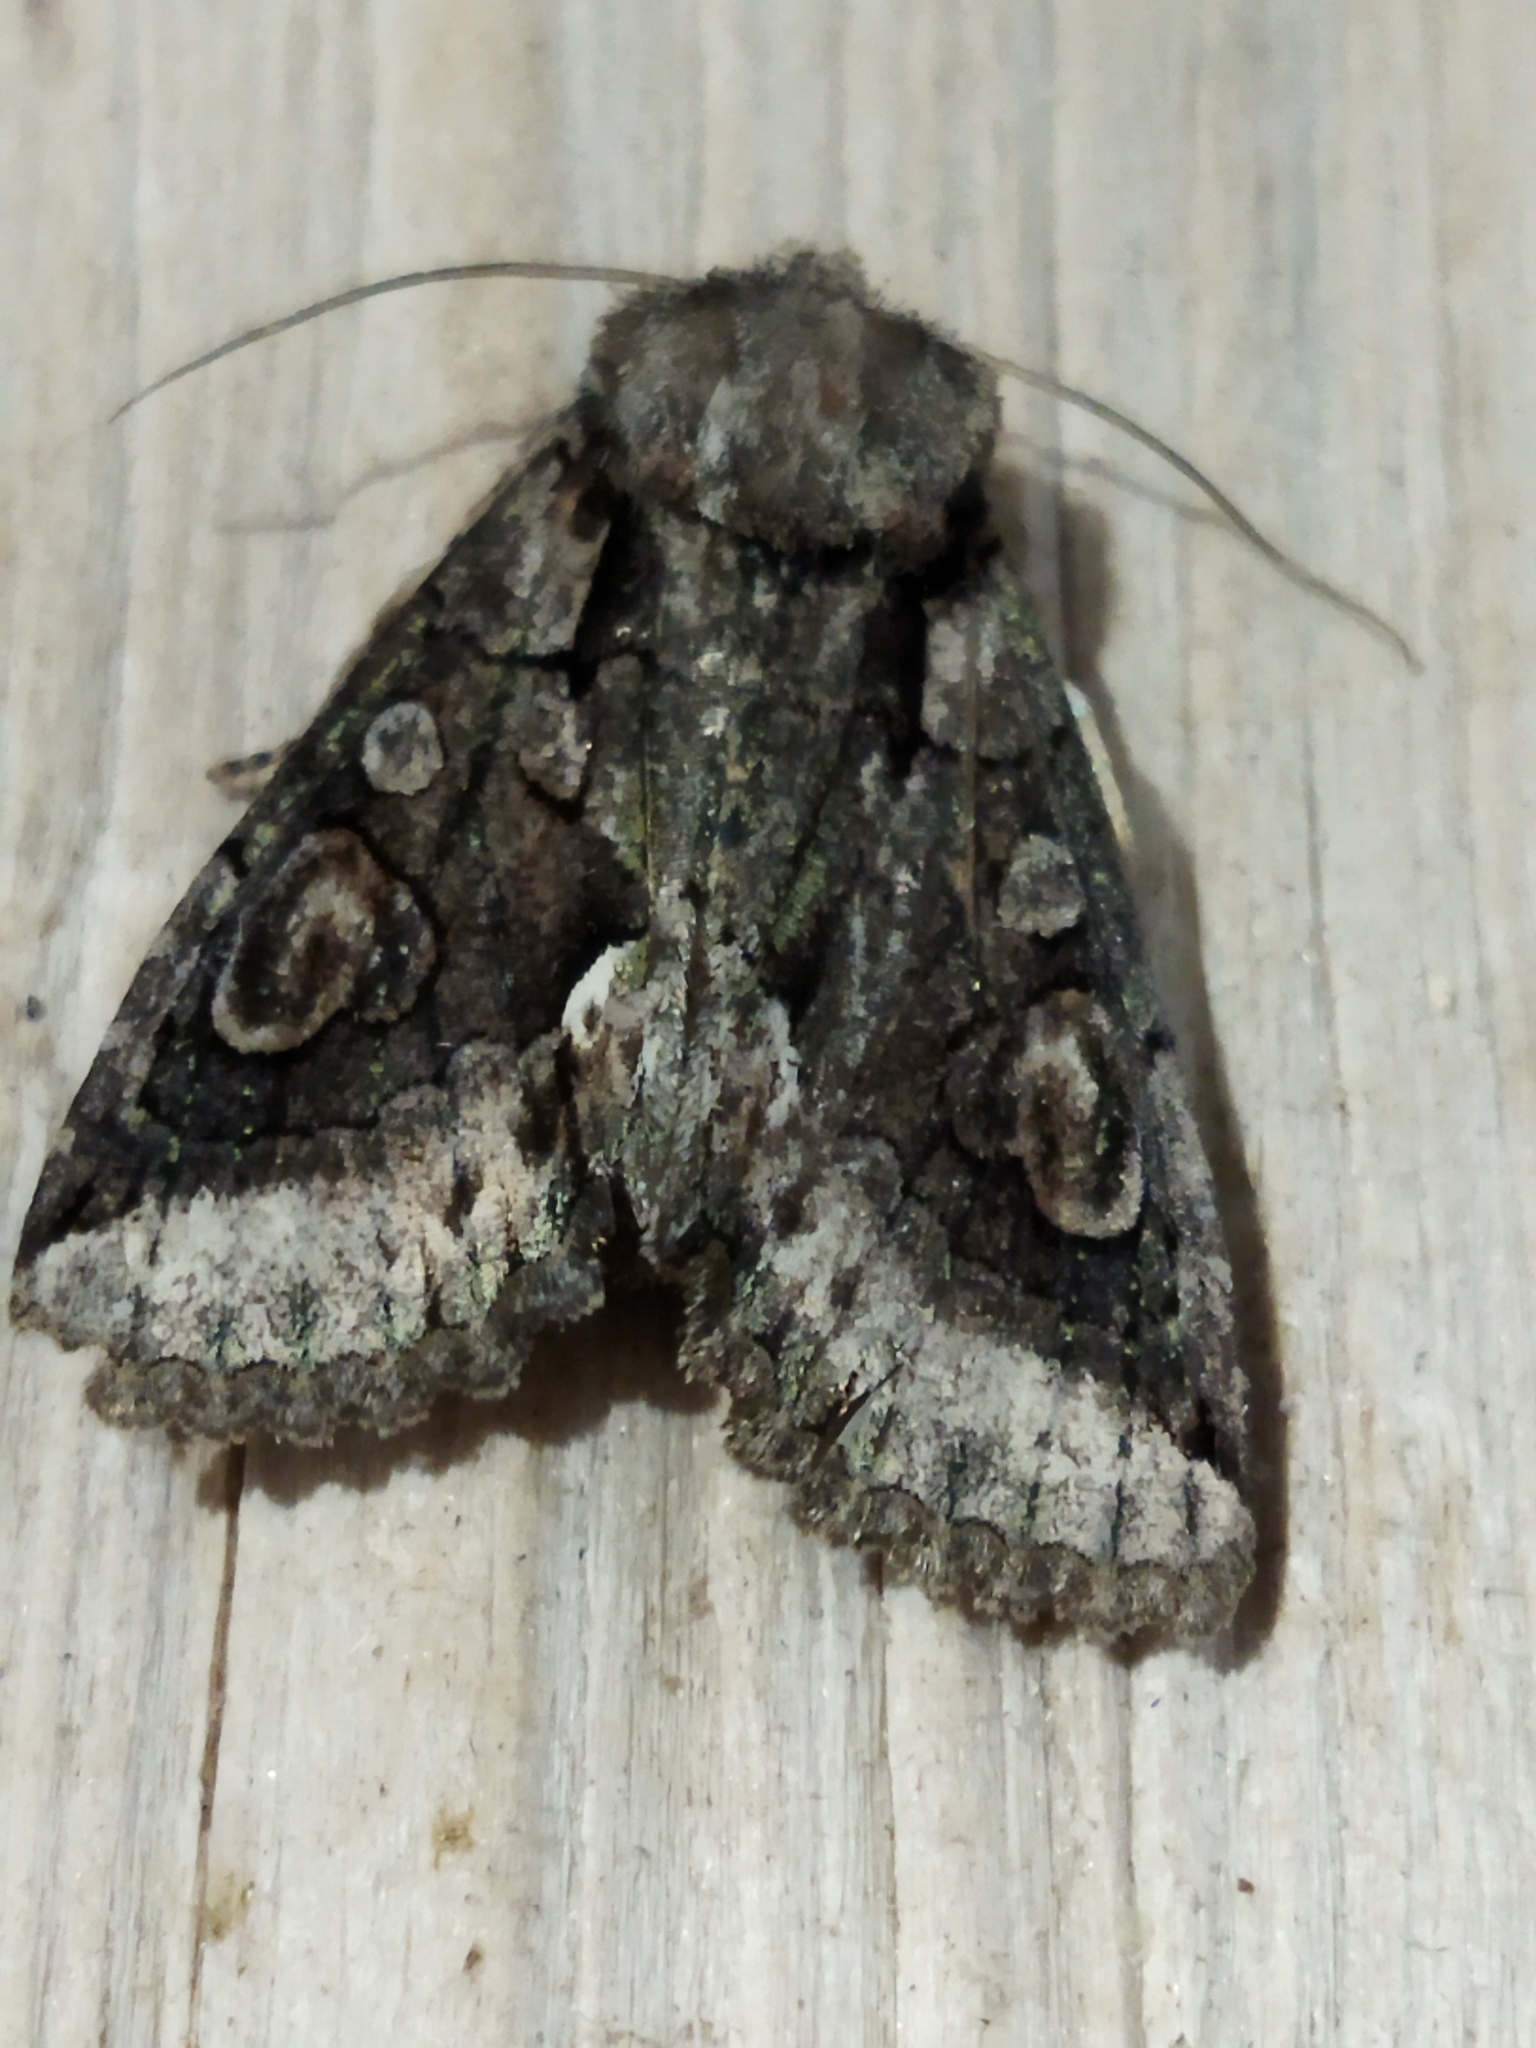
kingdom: Animalia
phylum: Arthropoda
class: Insecta
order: Lepidoptera
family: Noctuidae
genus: Allophyes
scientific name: Allophyes oxyacanthae
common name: Green-brindled crescent
